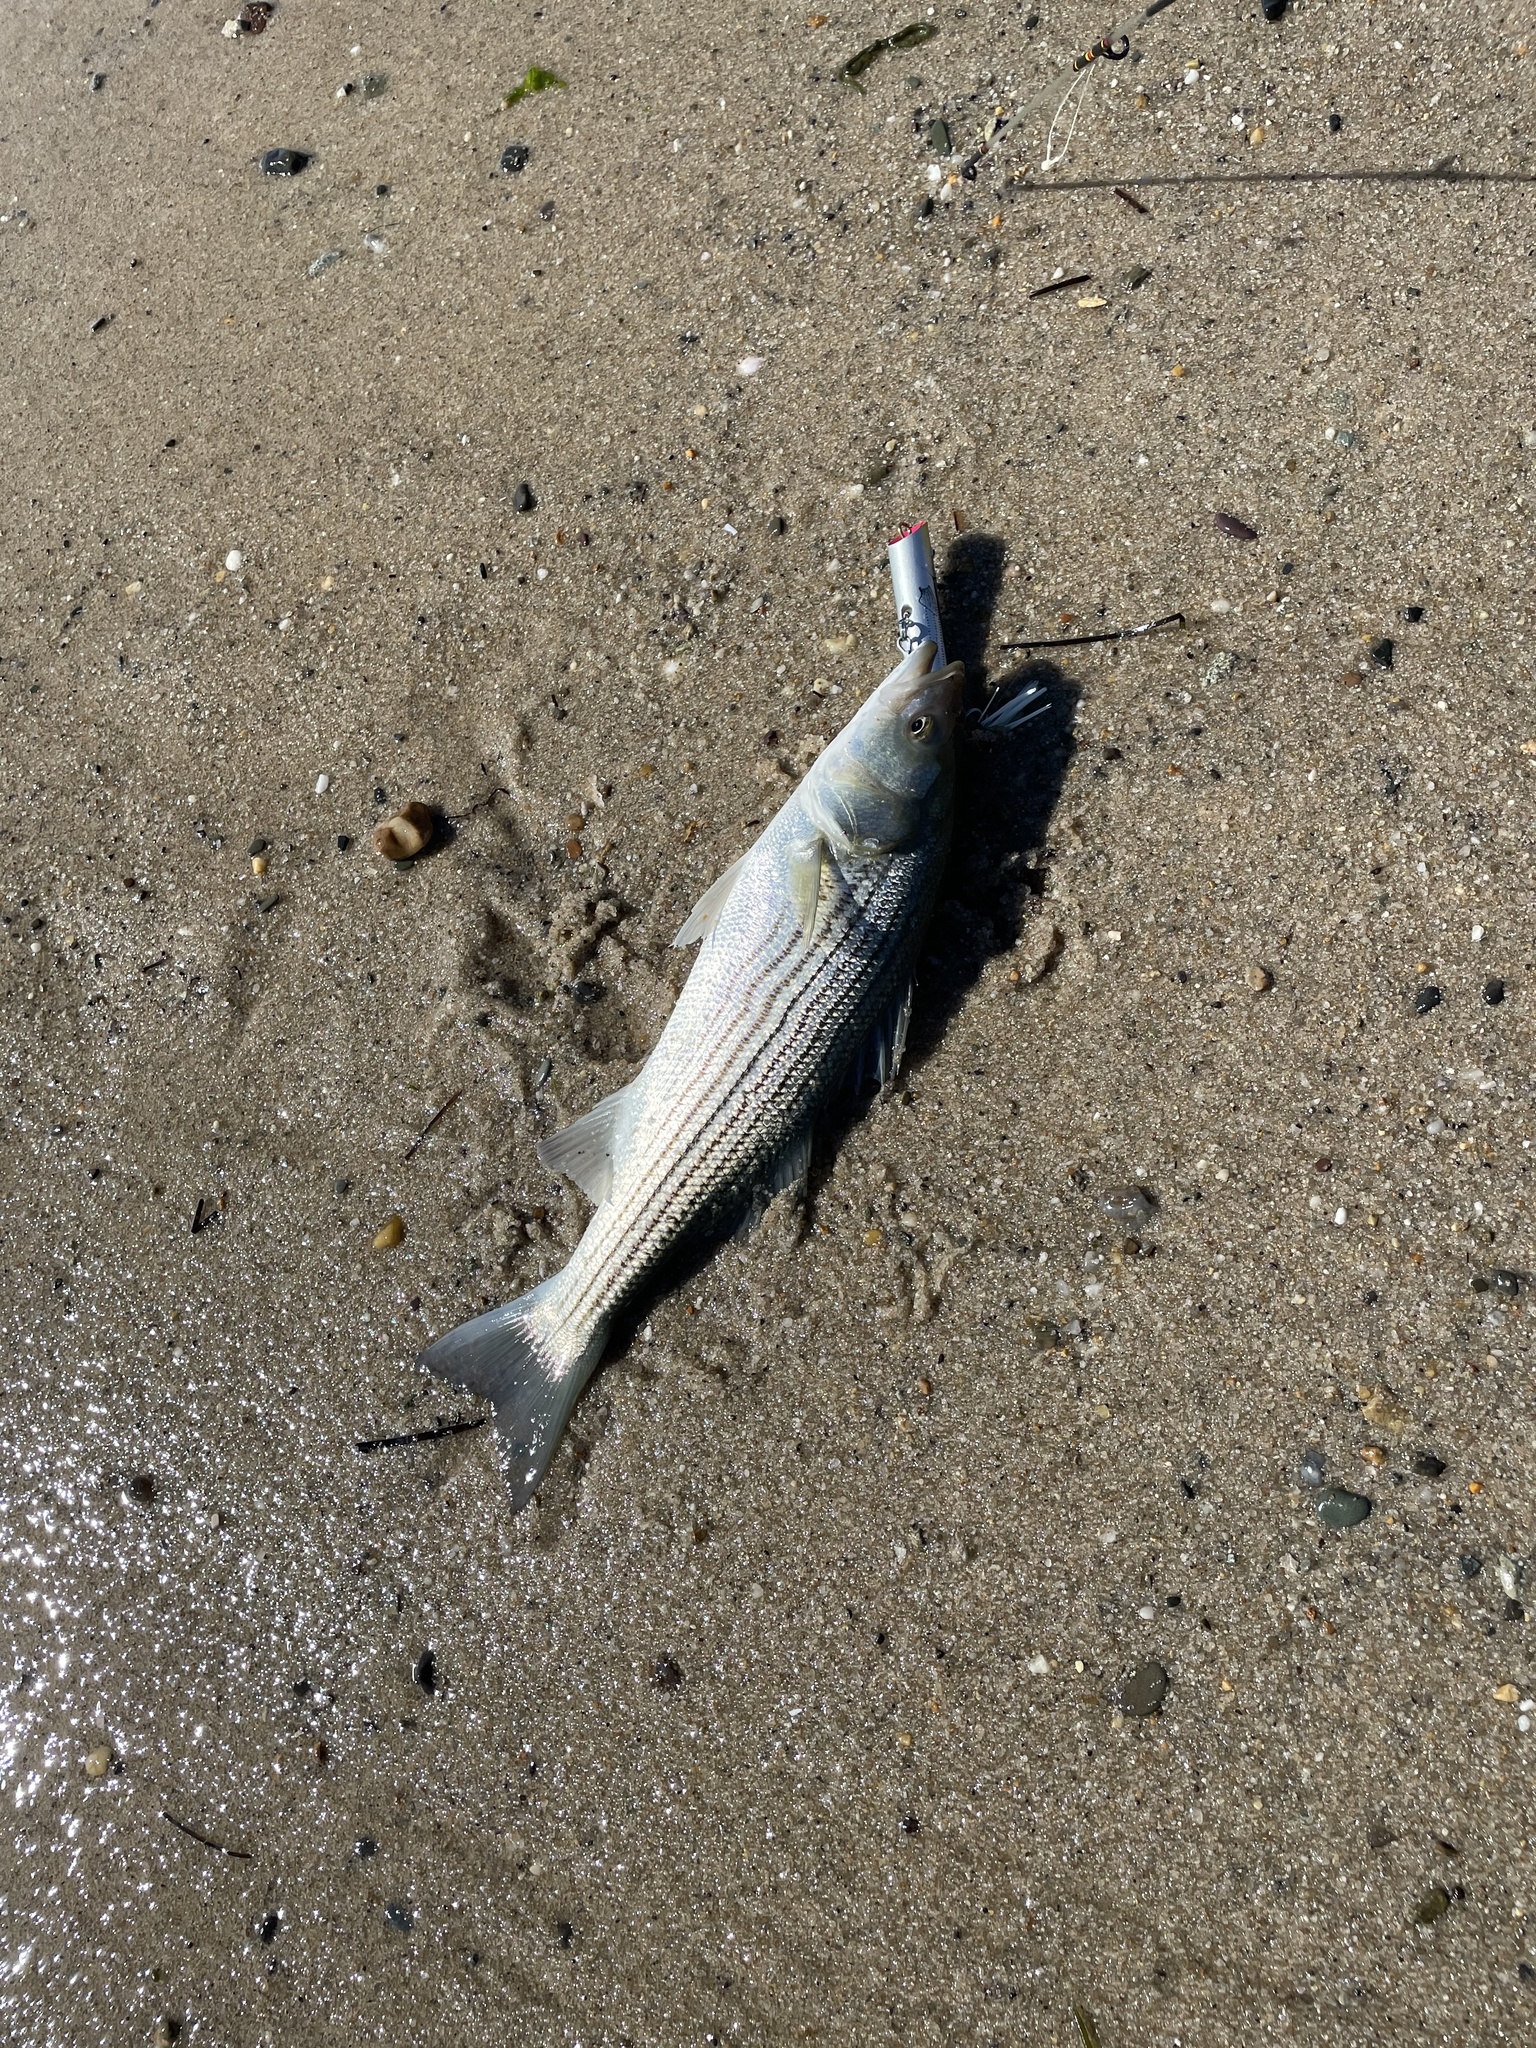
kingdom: Animalia
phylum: Chordata
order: Perciformes
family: Moronidae
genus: Morone
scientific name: Morone saxatilis
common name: Striped bass
